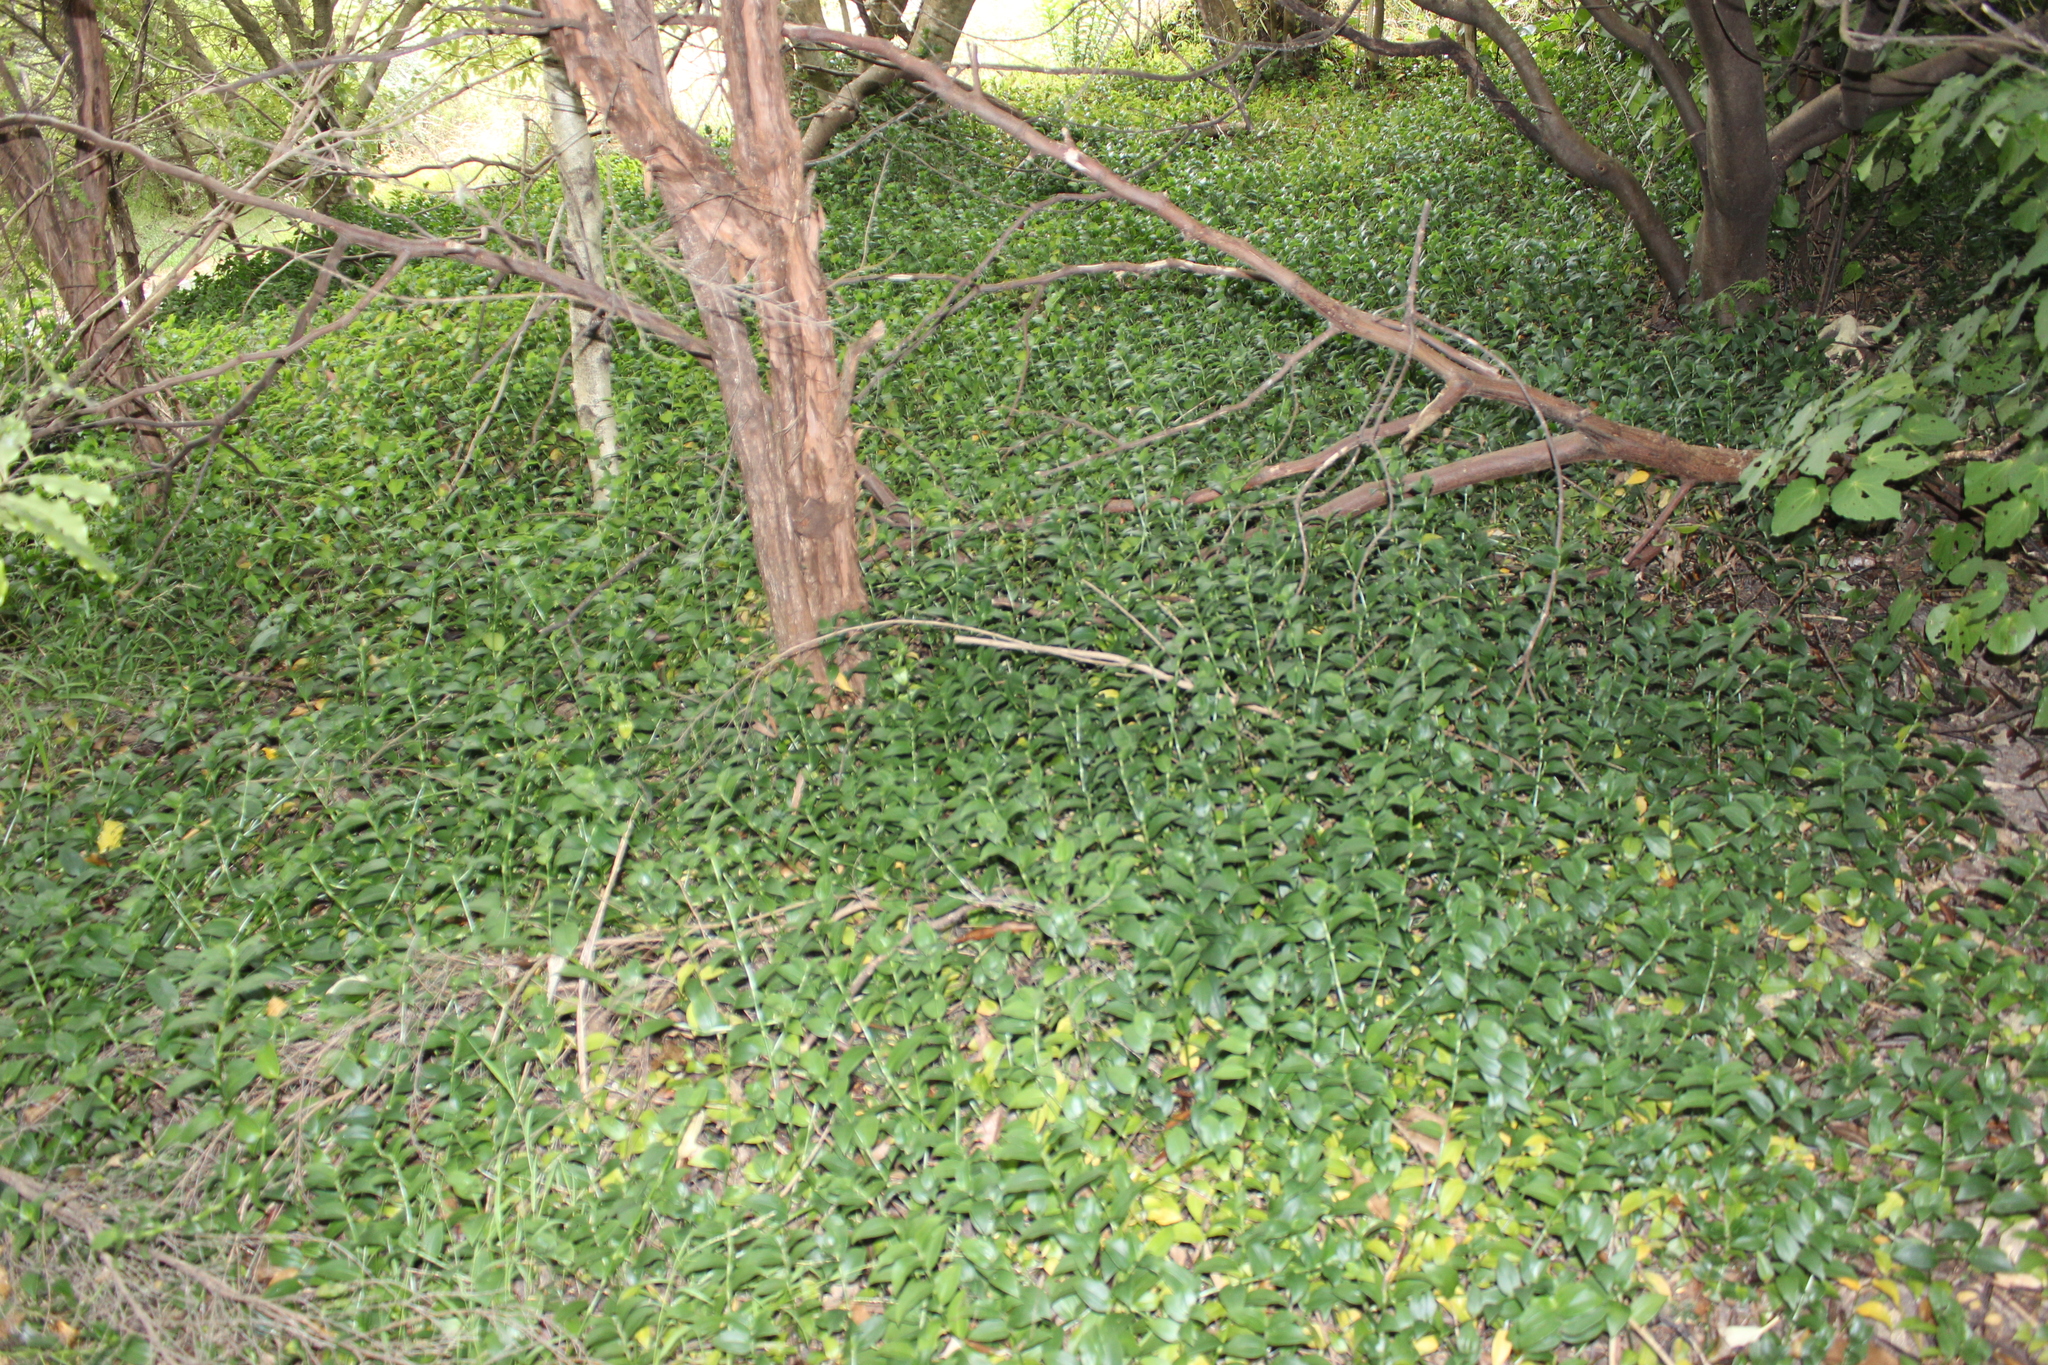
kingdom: Plantae
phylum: Tracheophyta
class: Liliopsida
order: Commelinales
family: Commelinaceae
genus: Tradescantia
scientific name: Tradescantia fluminensis
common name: Wandering-jew
